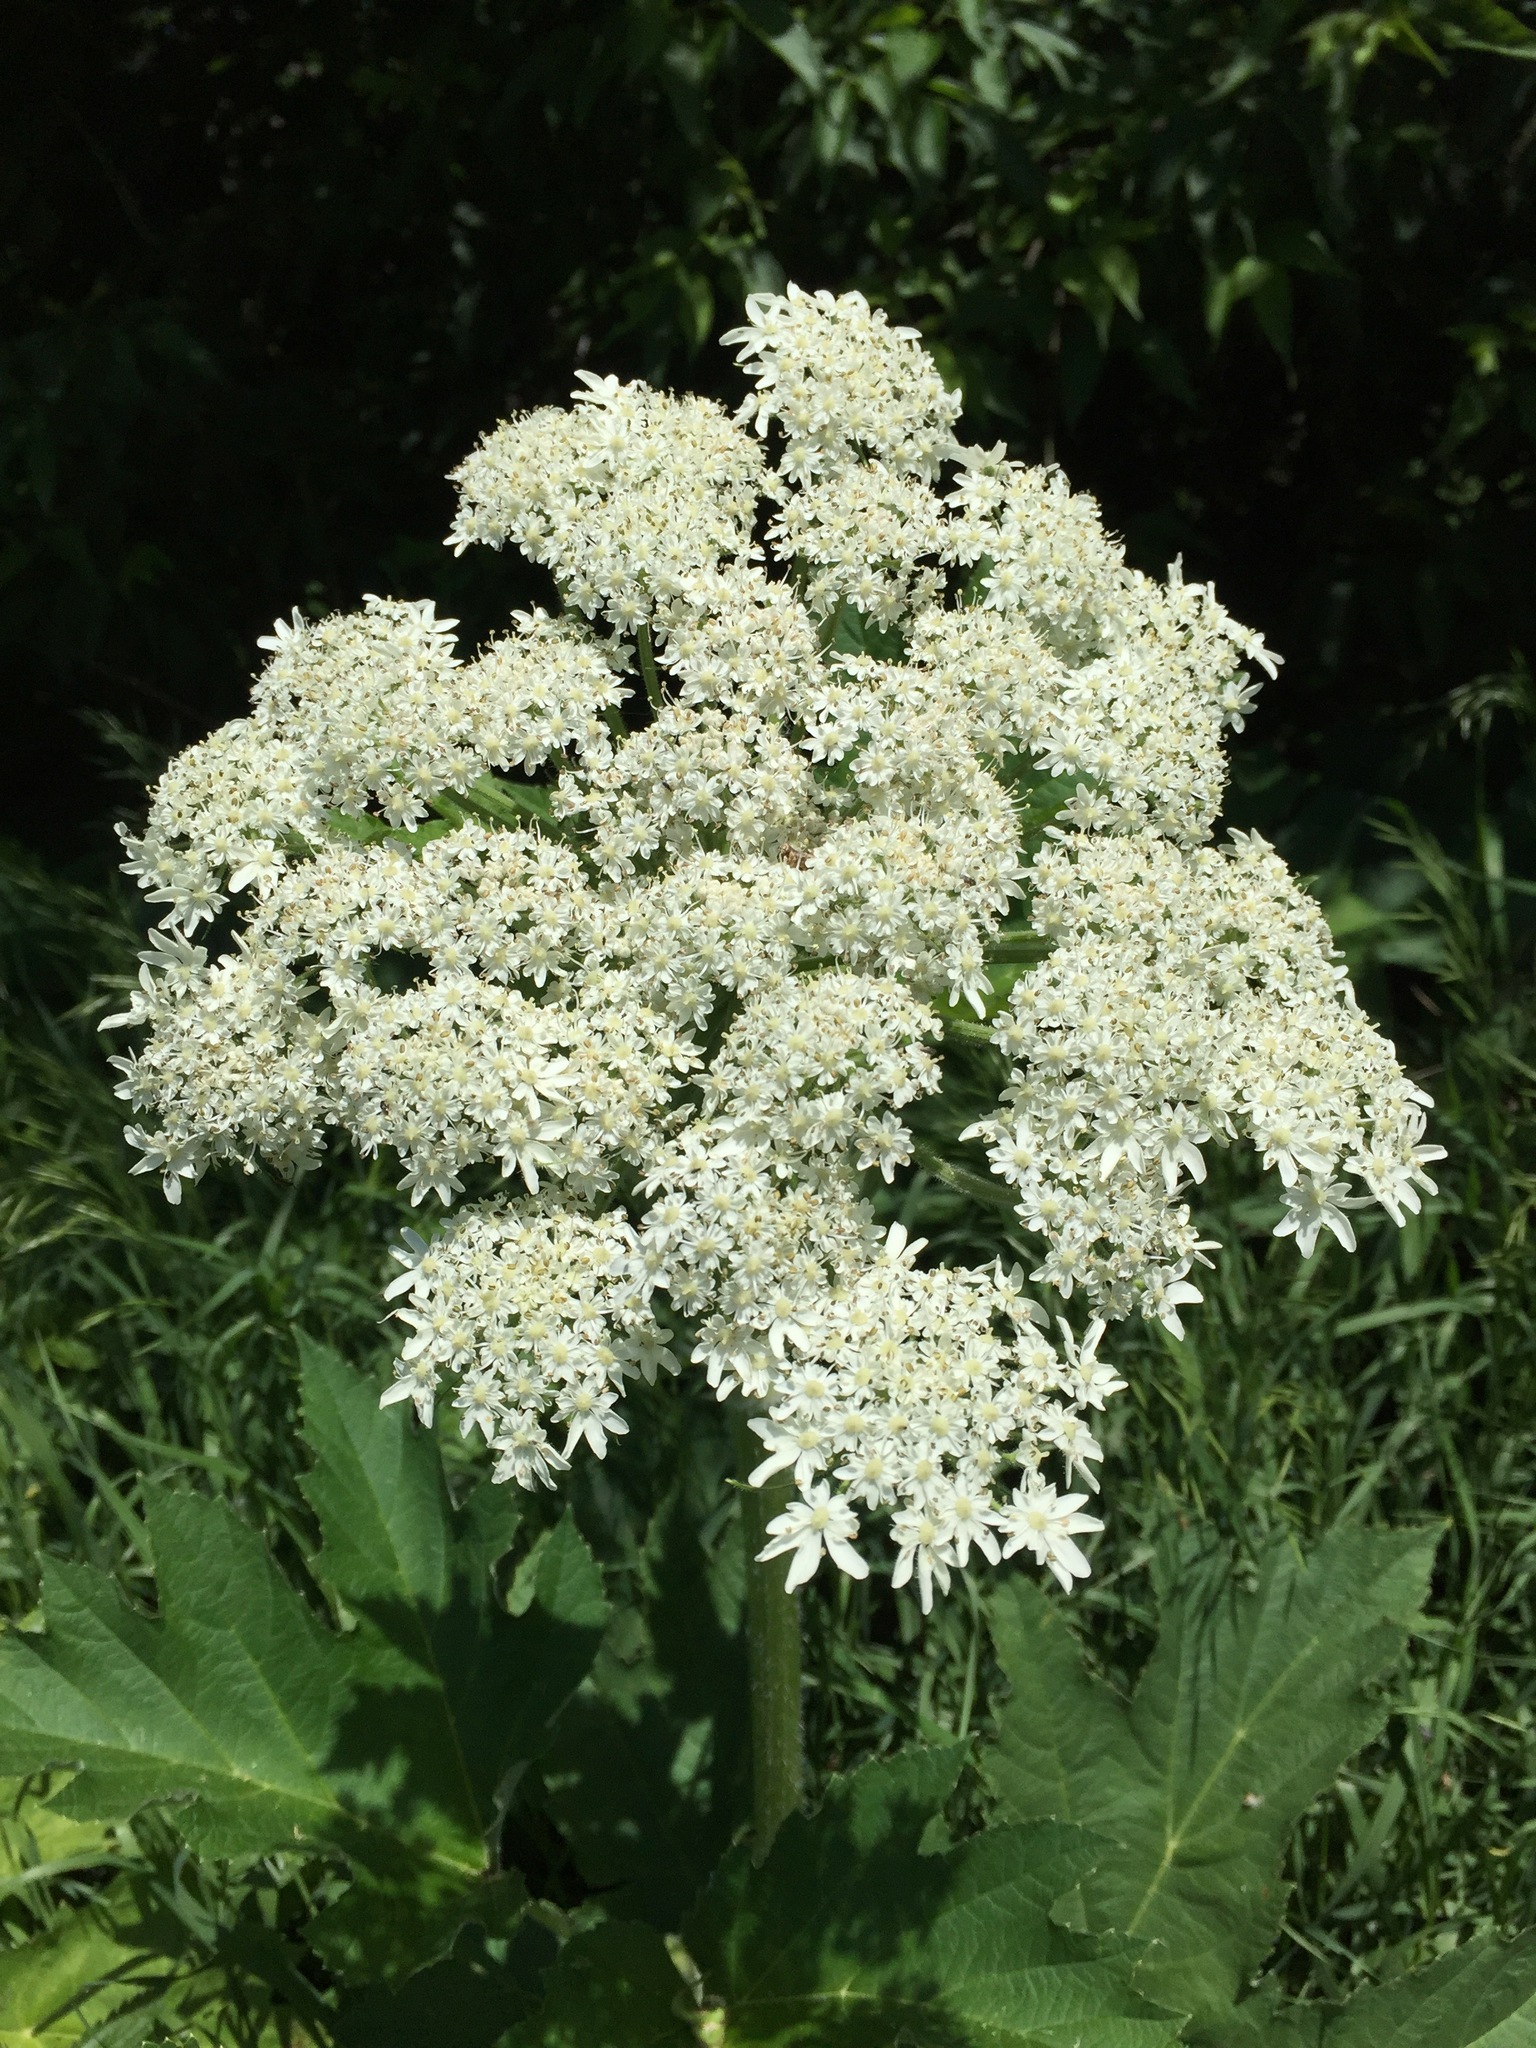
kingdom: Plantae
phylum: Tracheophyta
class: Magnoliopsida
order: Apiales
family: Apiaceae
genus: Heracleum
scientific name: Heracleum maximum
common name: American cow parsnip
